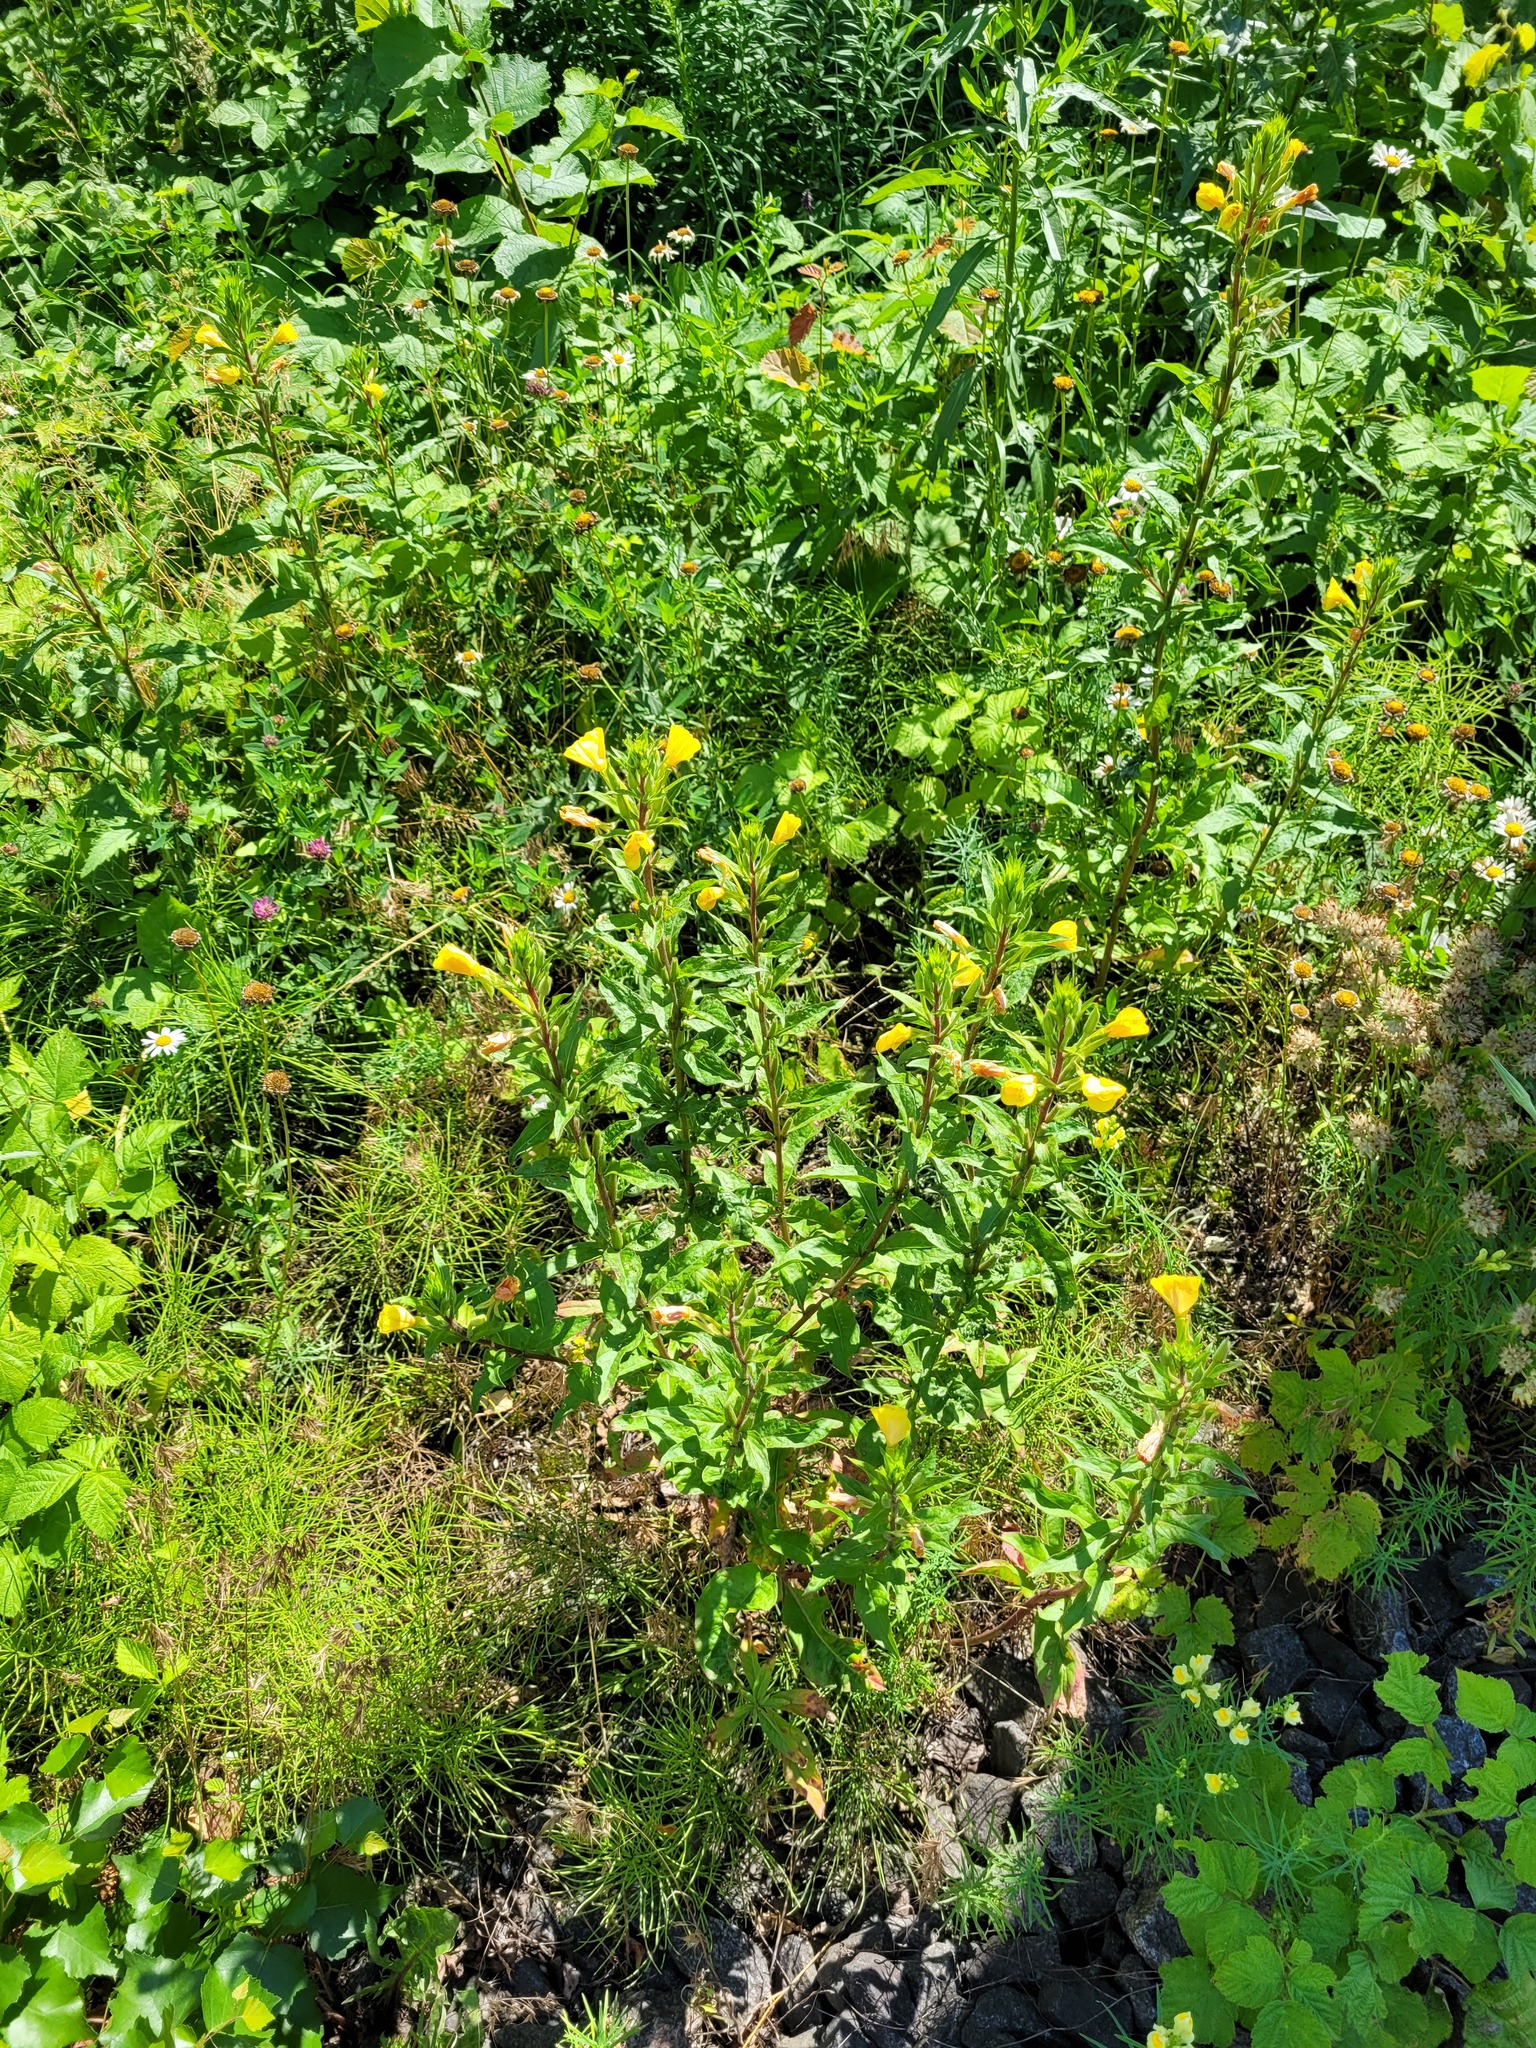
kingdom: Plantae
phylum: Tracheophyta
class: Magnoliopsida
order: Myrtales
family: Onagraceae
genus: Oenothera
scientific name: Oenothera rubricaulis
